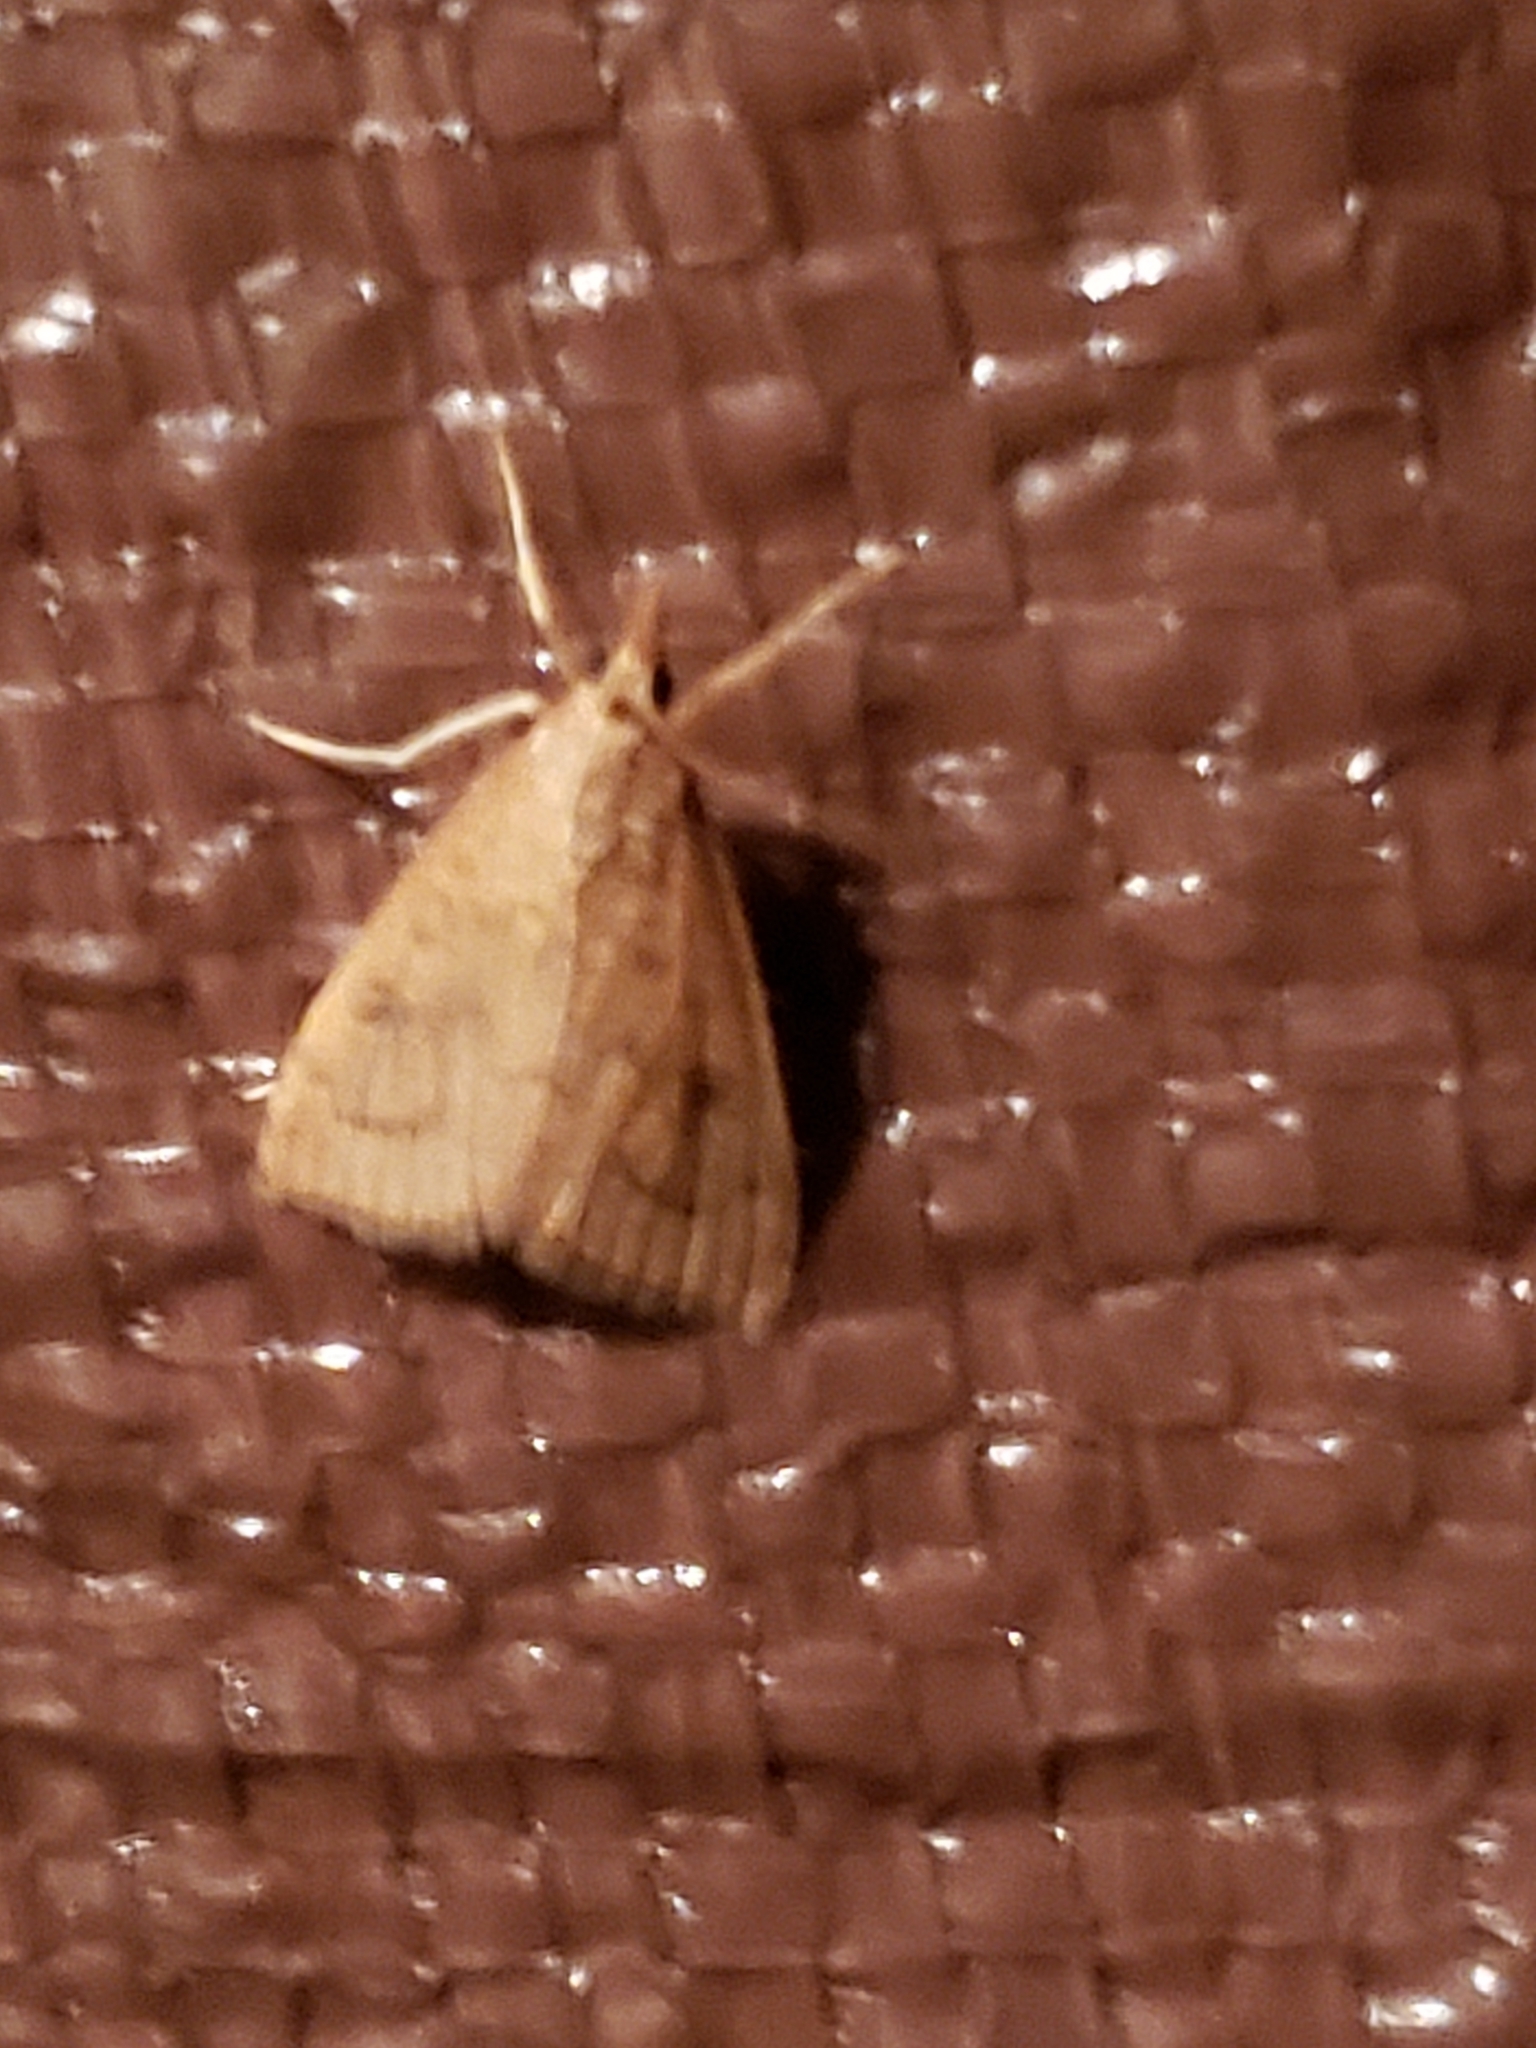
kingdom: Animalia
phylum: Arthropoda
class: Insecta
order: Lepidoptera
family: Crambidae
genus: Udea
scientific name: Udea rubigalis
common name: Celery leaftier moth
